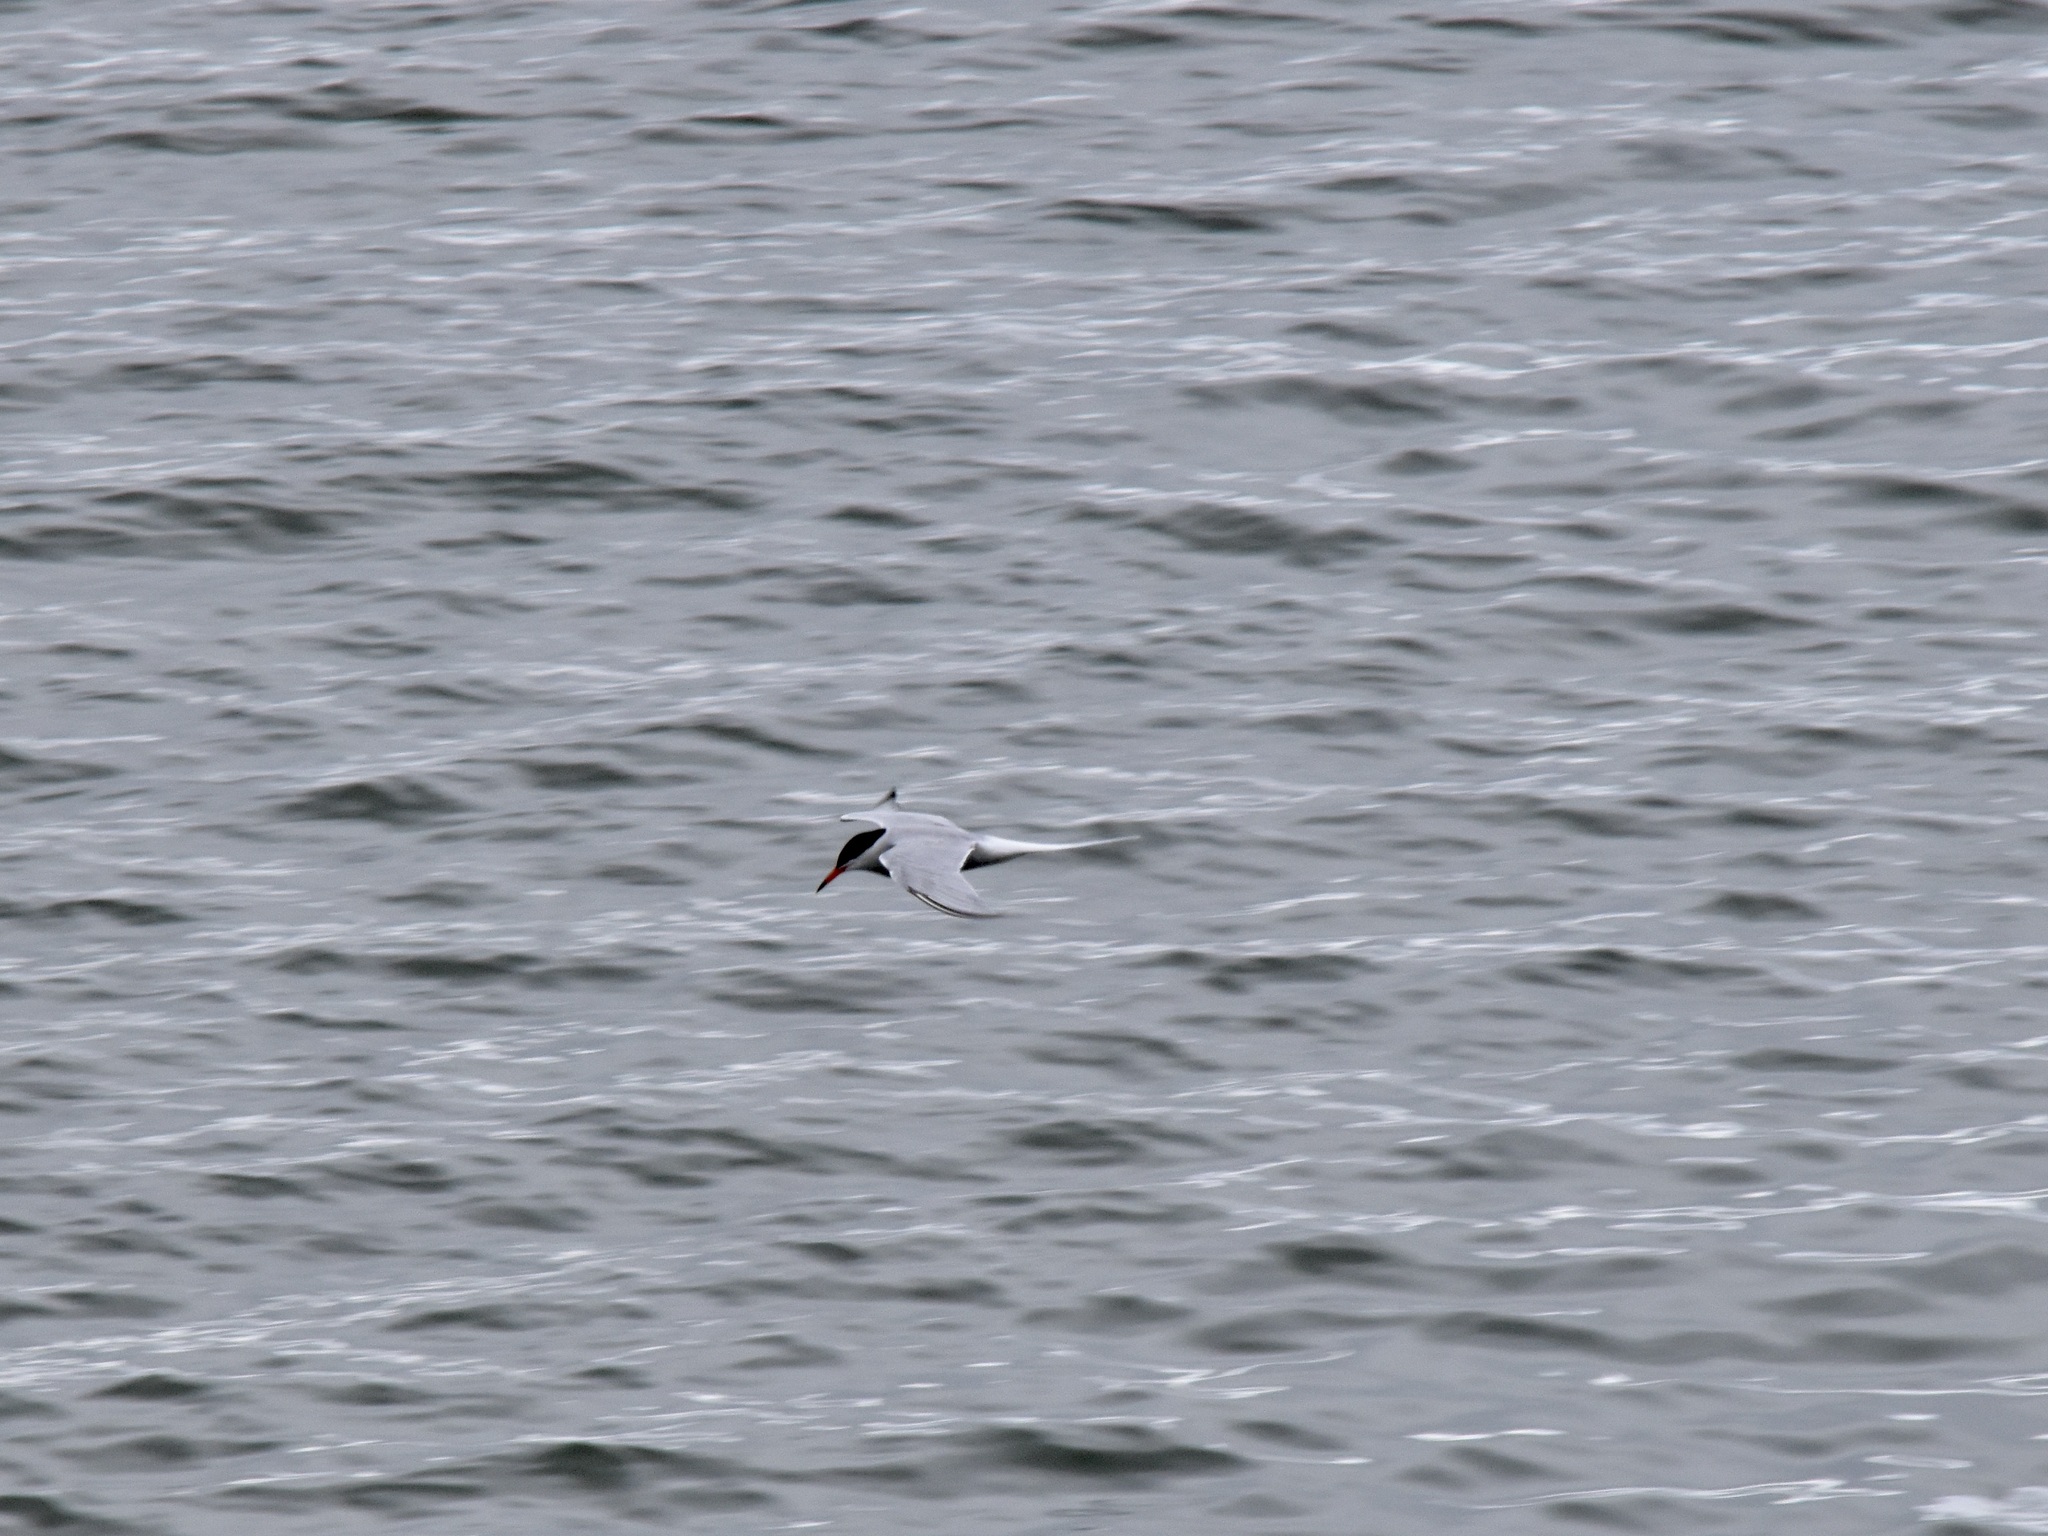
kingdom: Animalia
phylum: Chordata
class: Aves
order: Charadriiformes
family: Laridae
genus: Sterna
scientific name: Sterna hirundo
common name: Common tern
